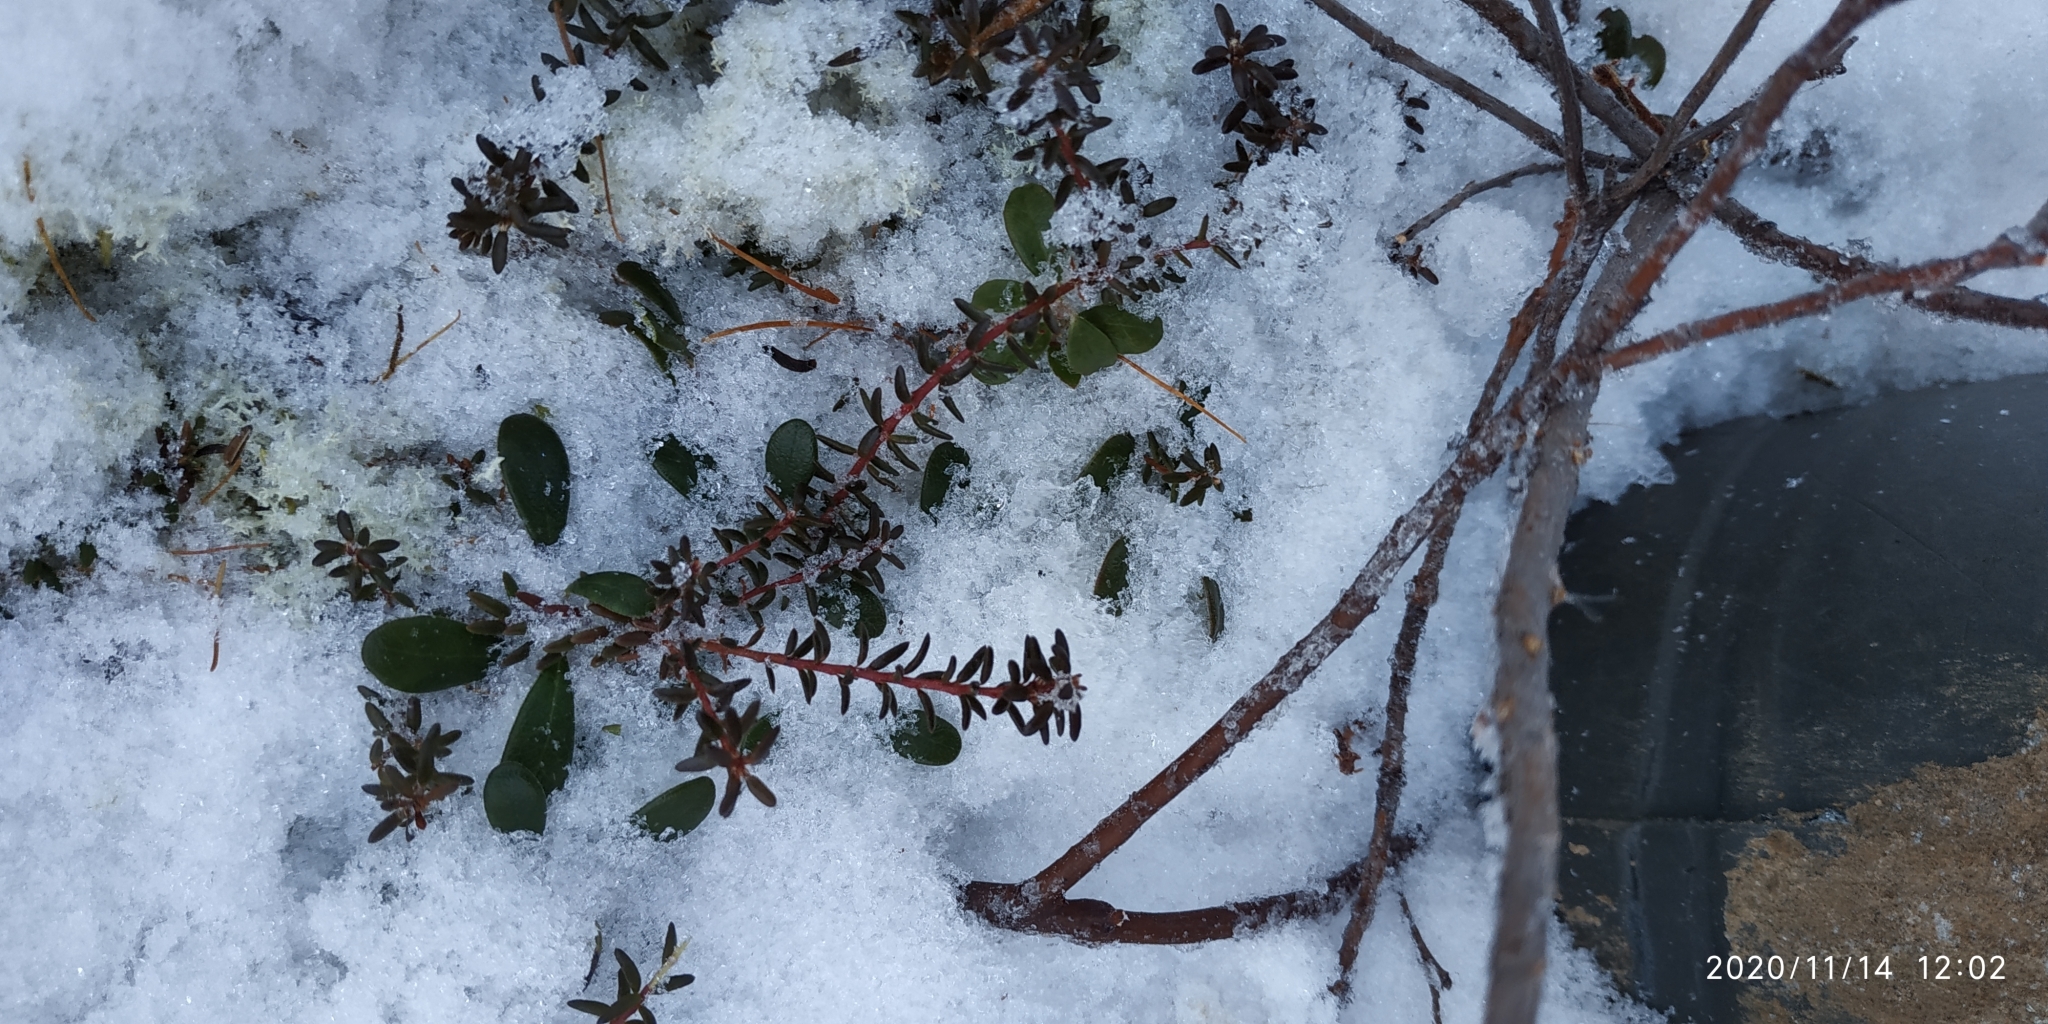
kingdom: Plantae
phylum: Tracheophyta
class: Magnoliopsida
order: Ericales
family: Ericaceae
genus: Empetrum
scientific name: Empetrum nigrum
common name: Black crowberry
